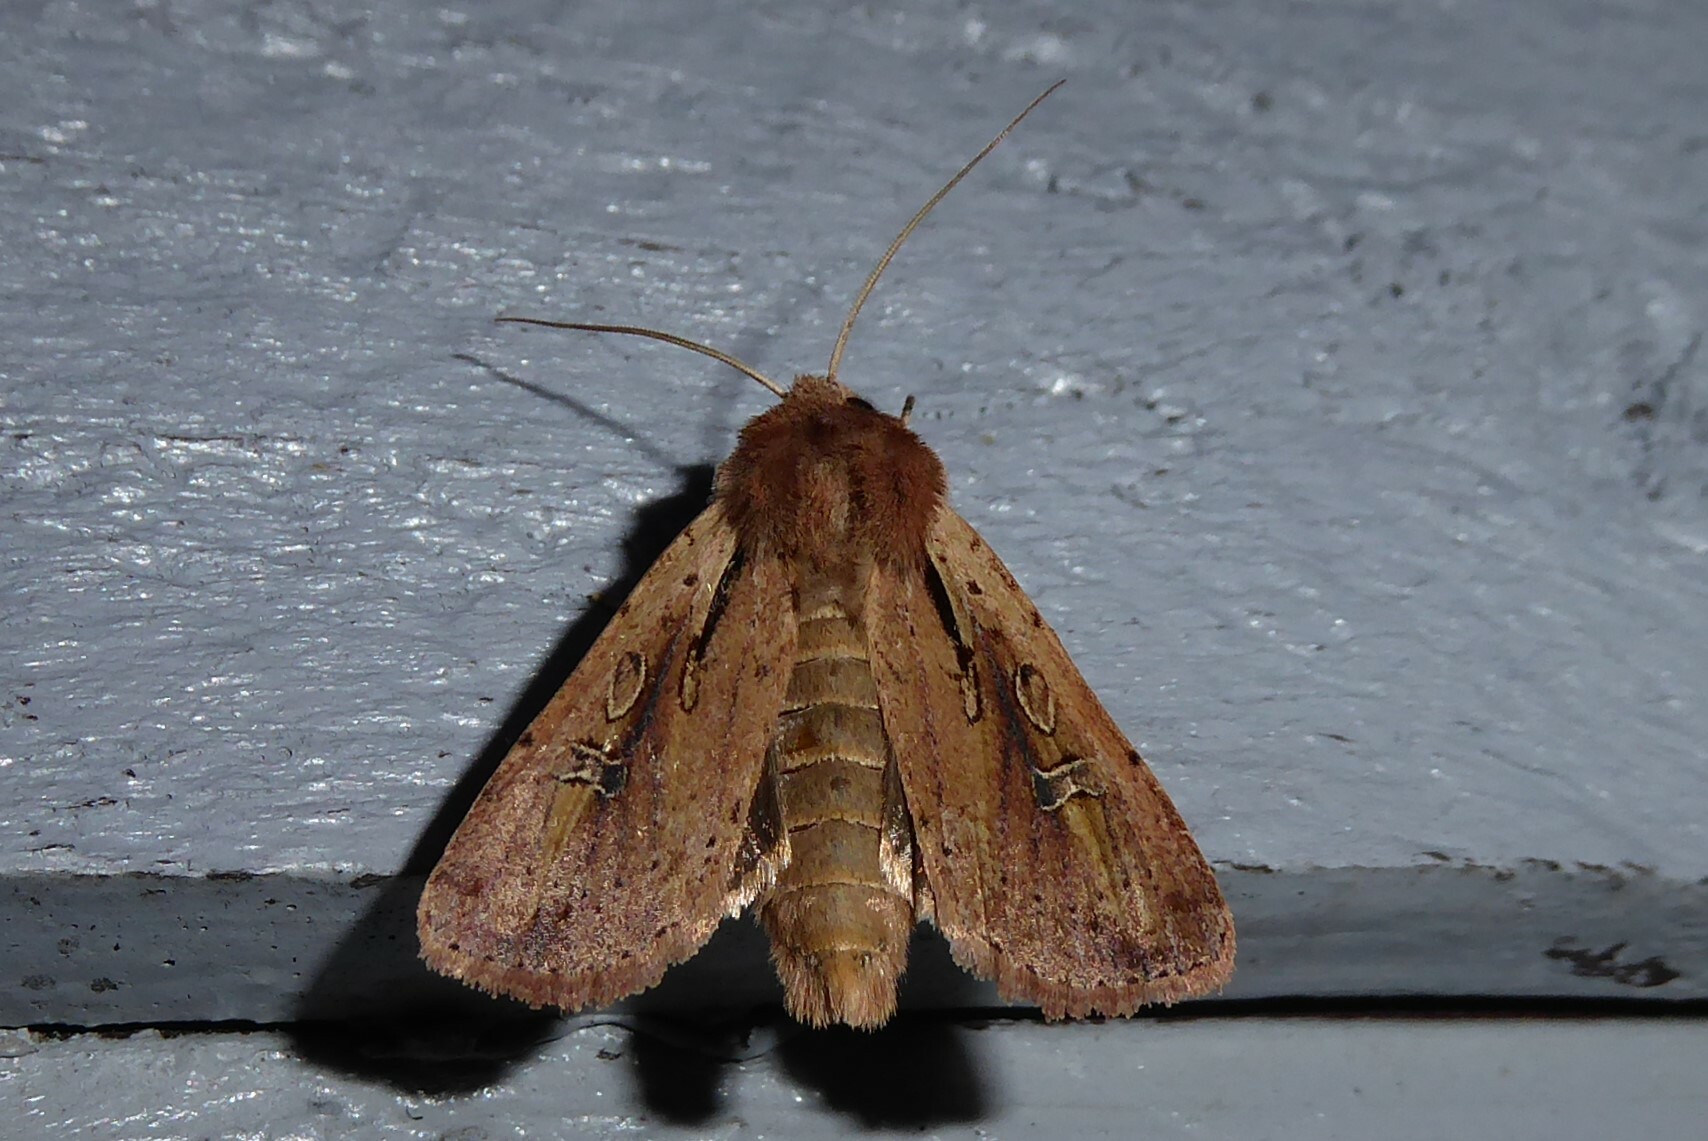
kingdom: Animalia
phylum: Arthropoda
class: Insecta
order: Lepidoptera
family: Noctuidae
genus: Ichneutica
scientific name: Ichneutica atristriga
